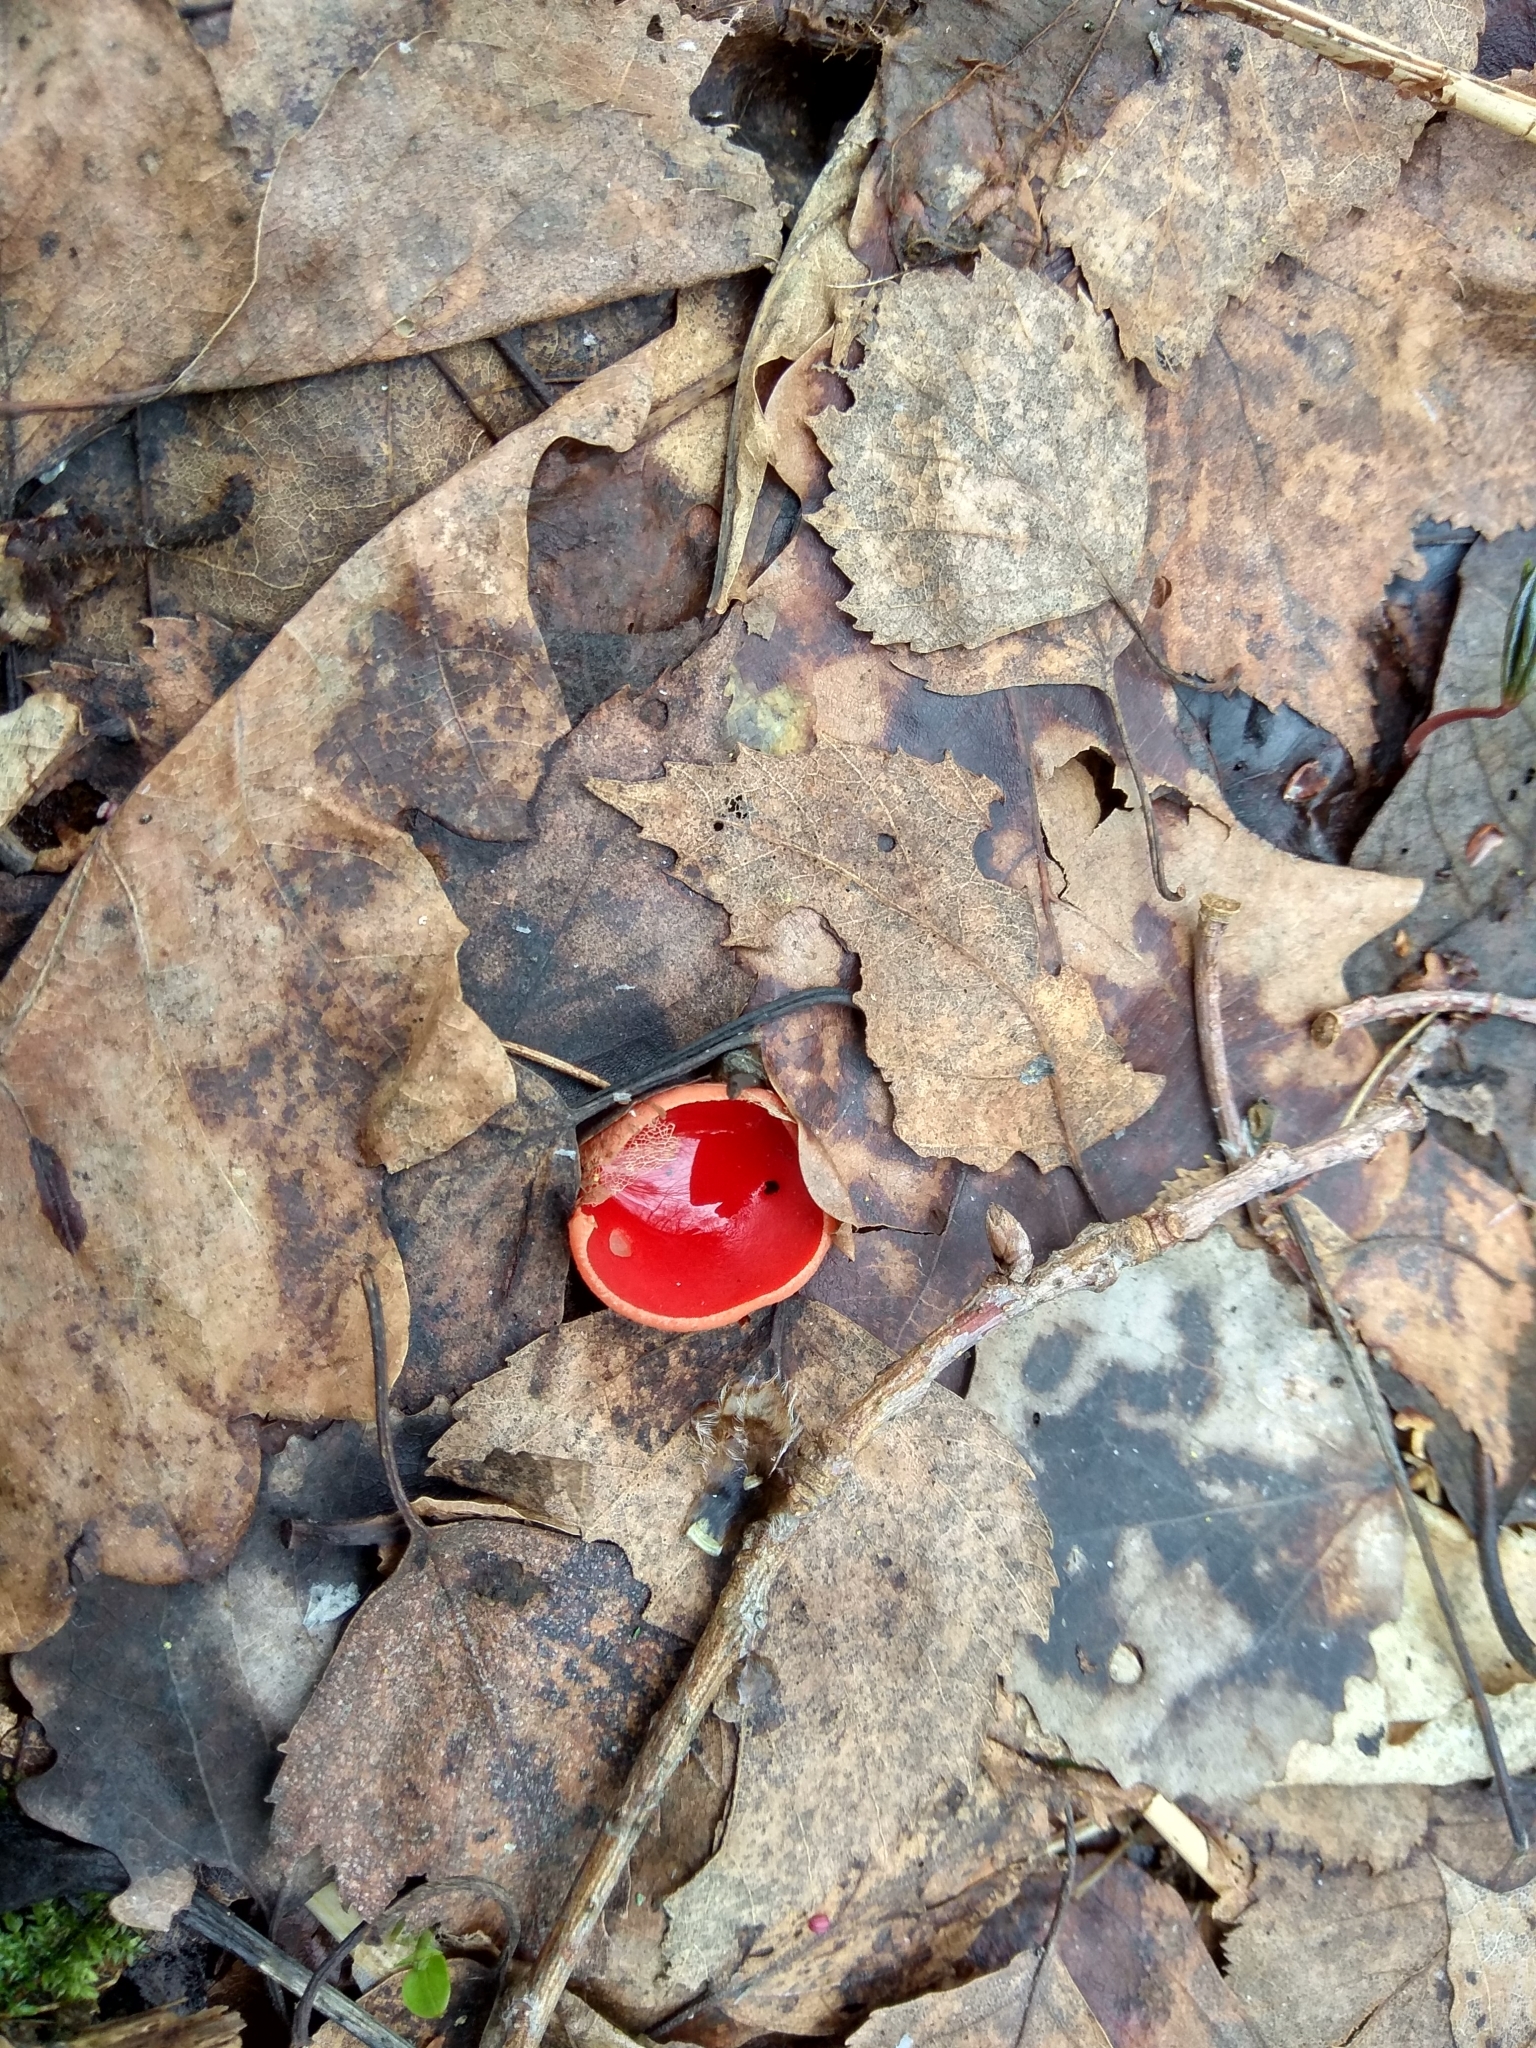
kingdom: Fungi
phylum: Ascomycota
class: Pezizomycetes
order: Pezizales
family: Sarcoscyphaceae
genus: Sarcoscypha
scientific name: Sarcoscypha
